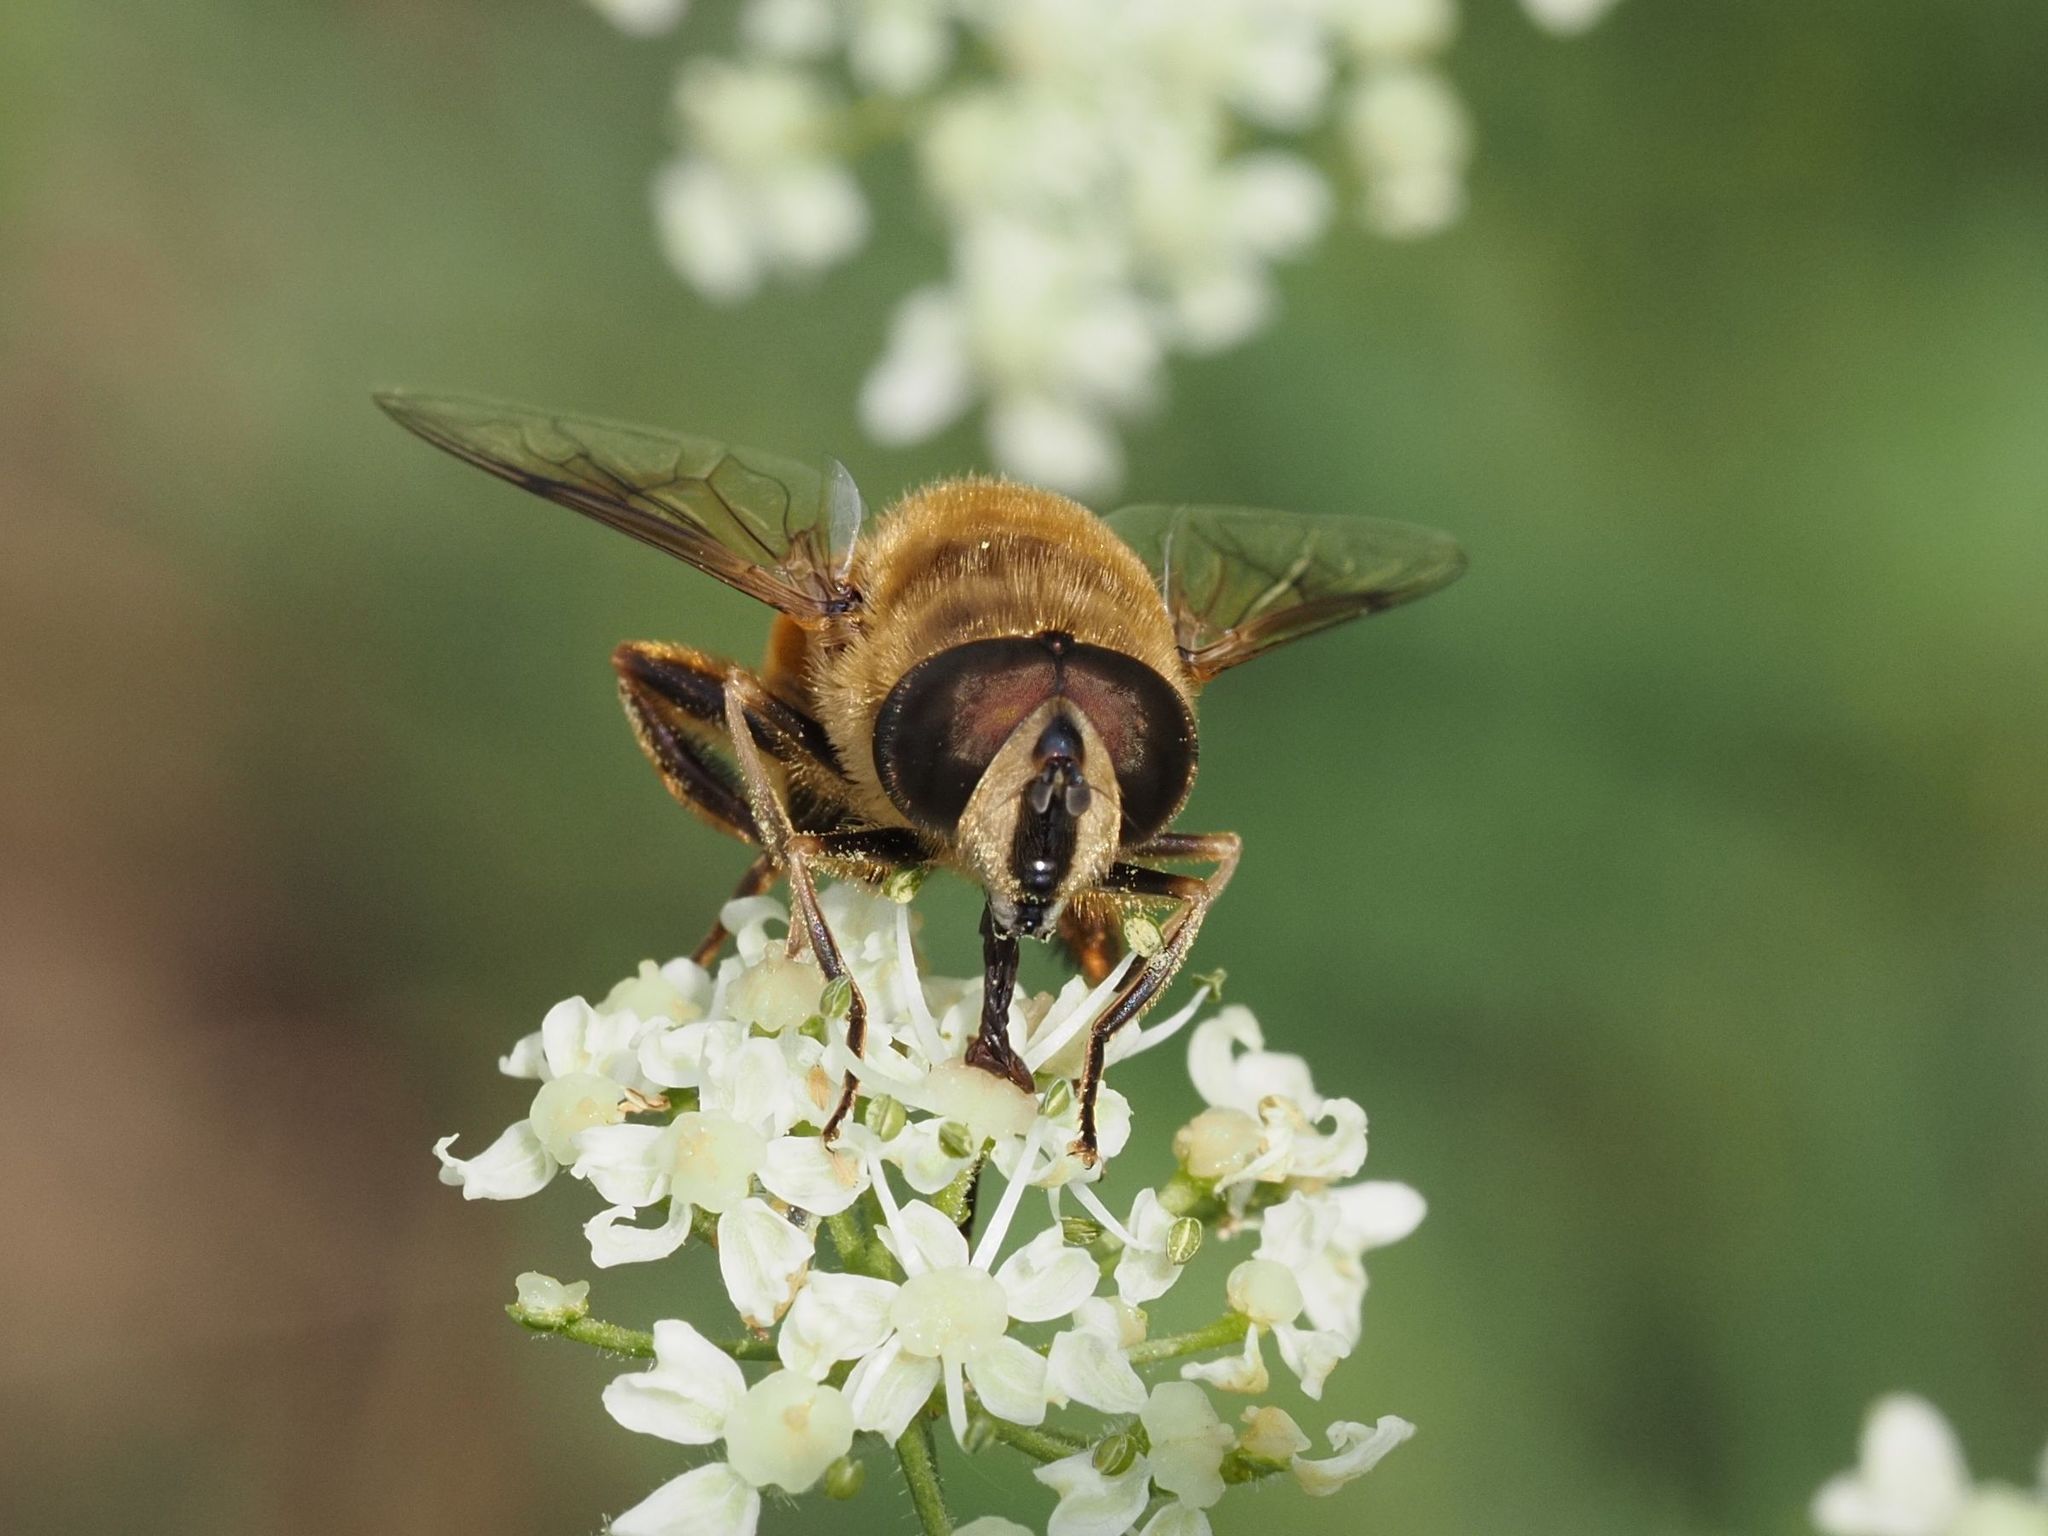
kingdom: Animalia
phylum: Arthropoda
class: Insecta
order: Diptera
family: Syrphidae
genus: Eristalis
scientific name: Eristalis tenax
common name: Drone fly
